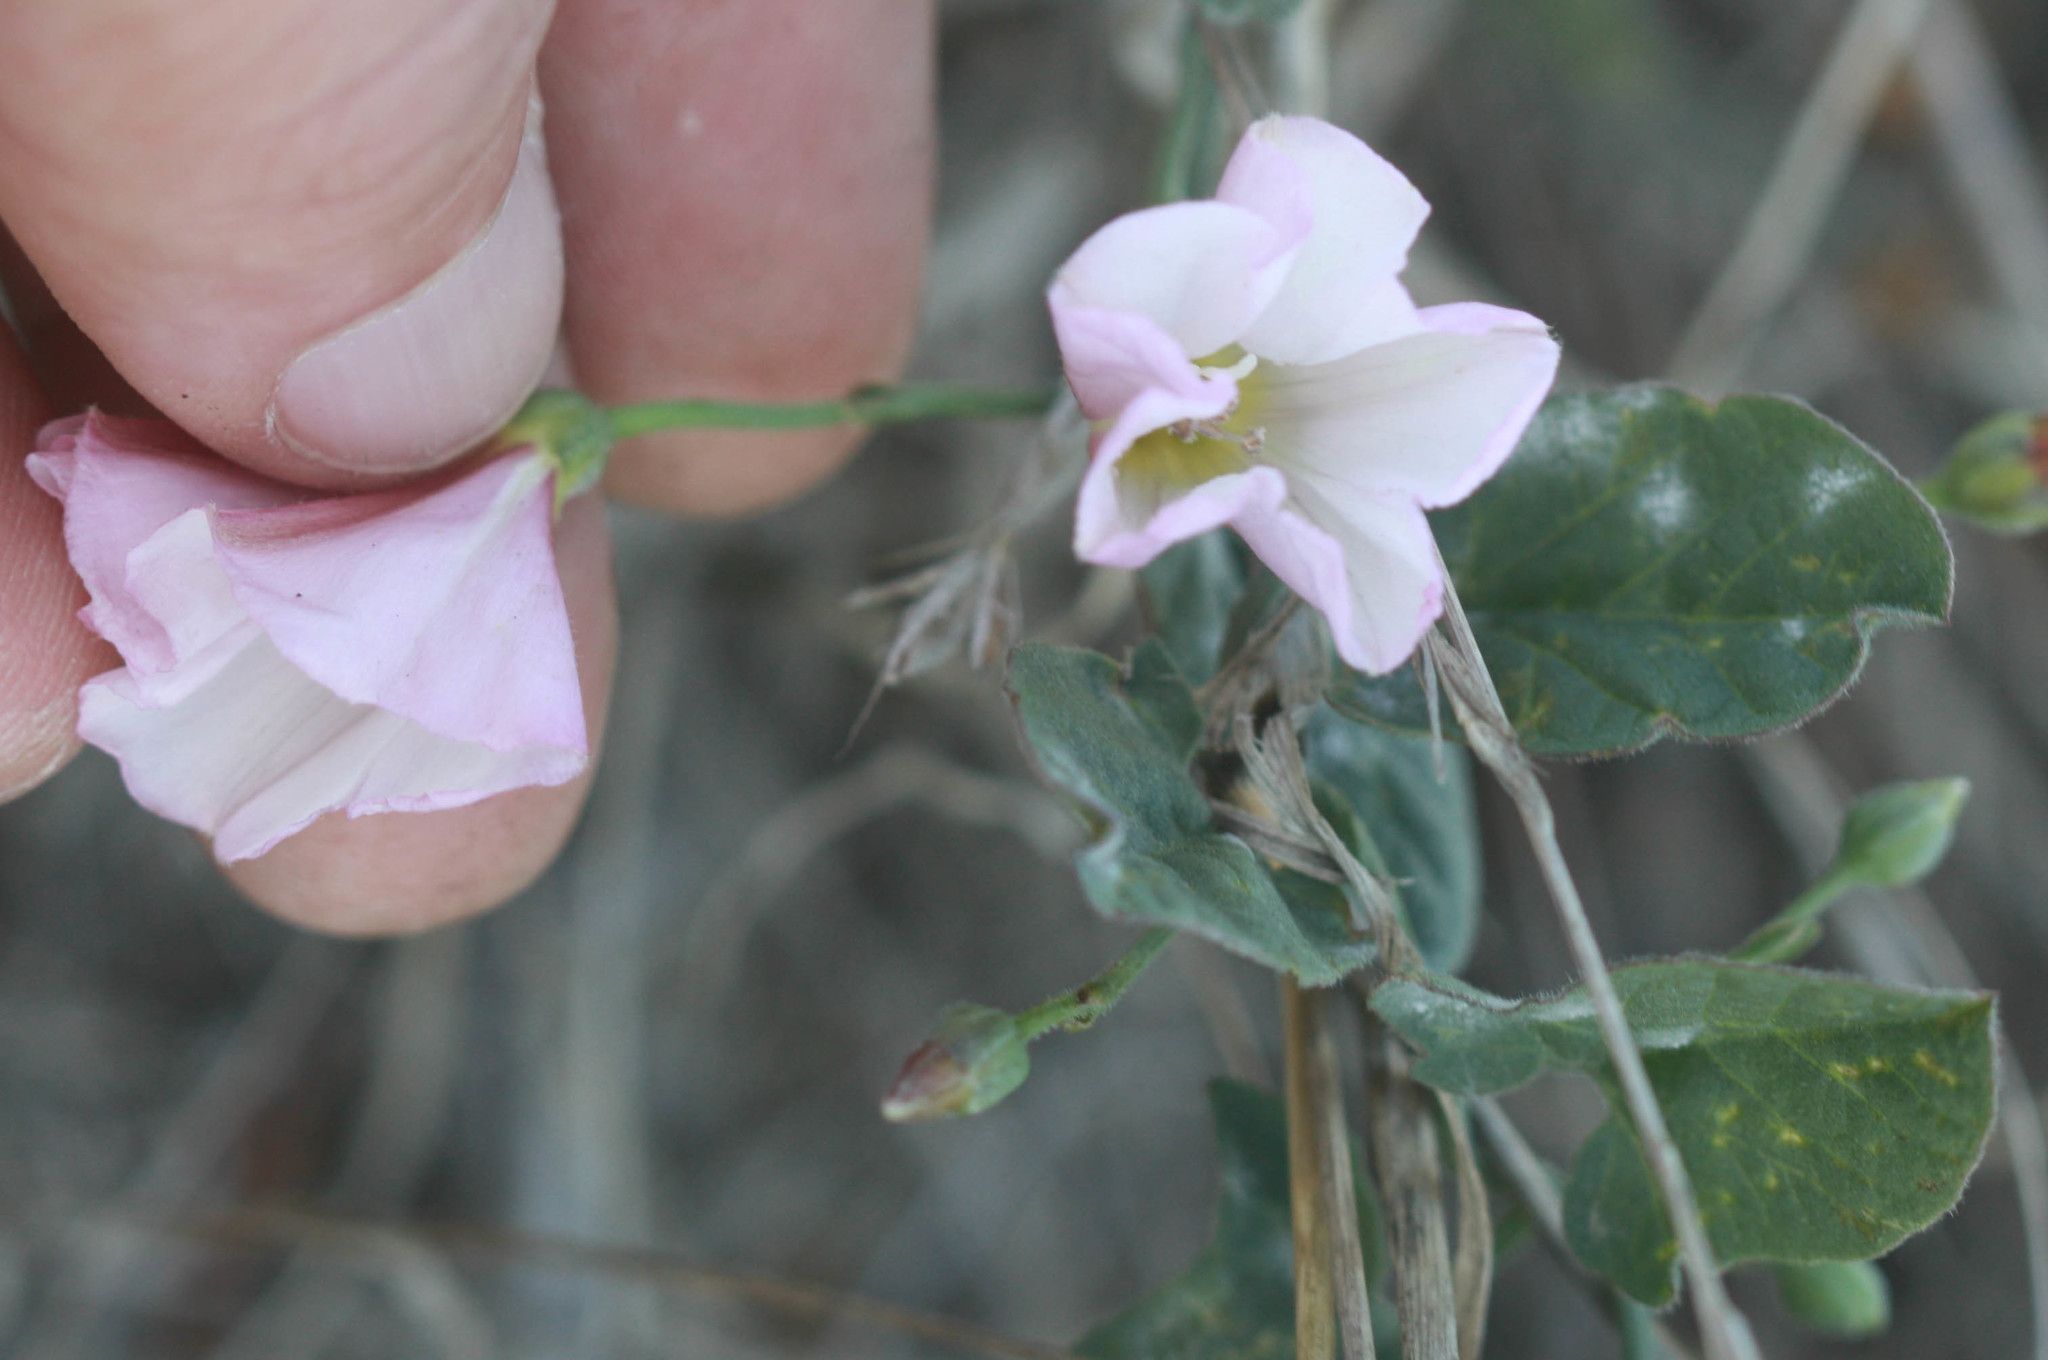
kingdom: Plantae
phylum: Tracheophyta
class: Magnoliopsida
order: Solanales
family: Convolvulaceae
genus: Convolvulus
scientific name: Convolvulus arvensis
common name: Field bindweed
